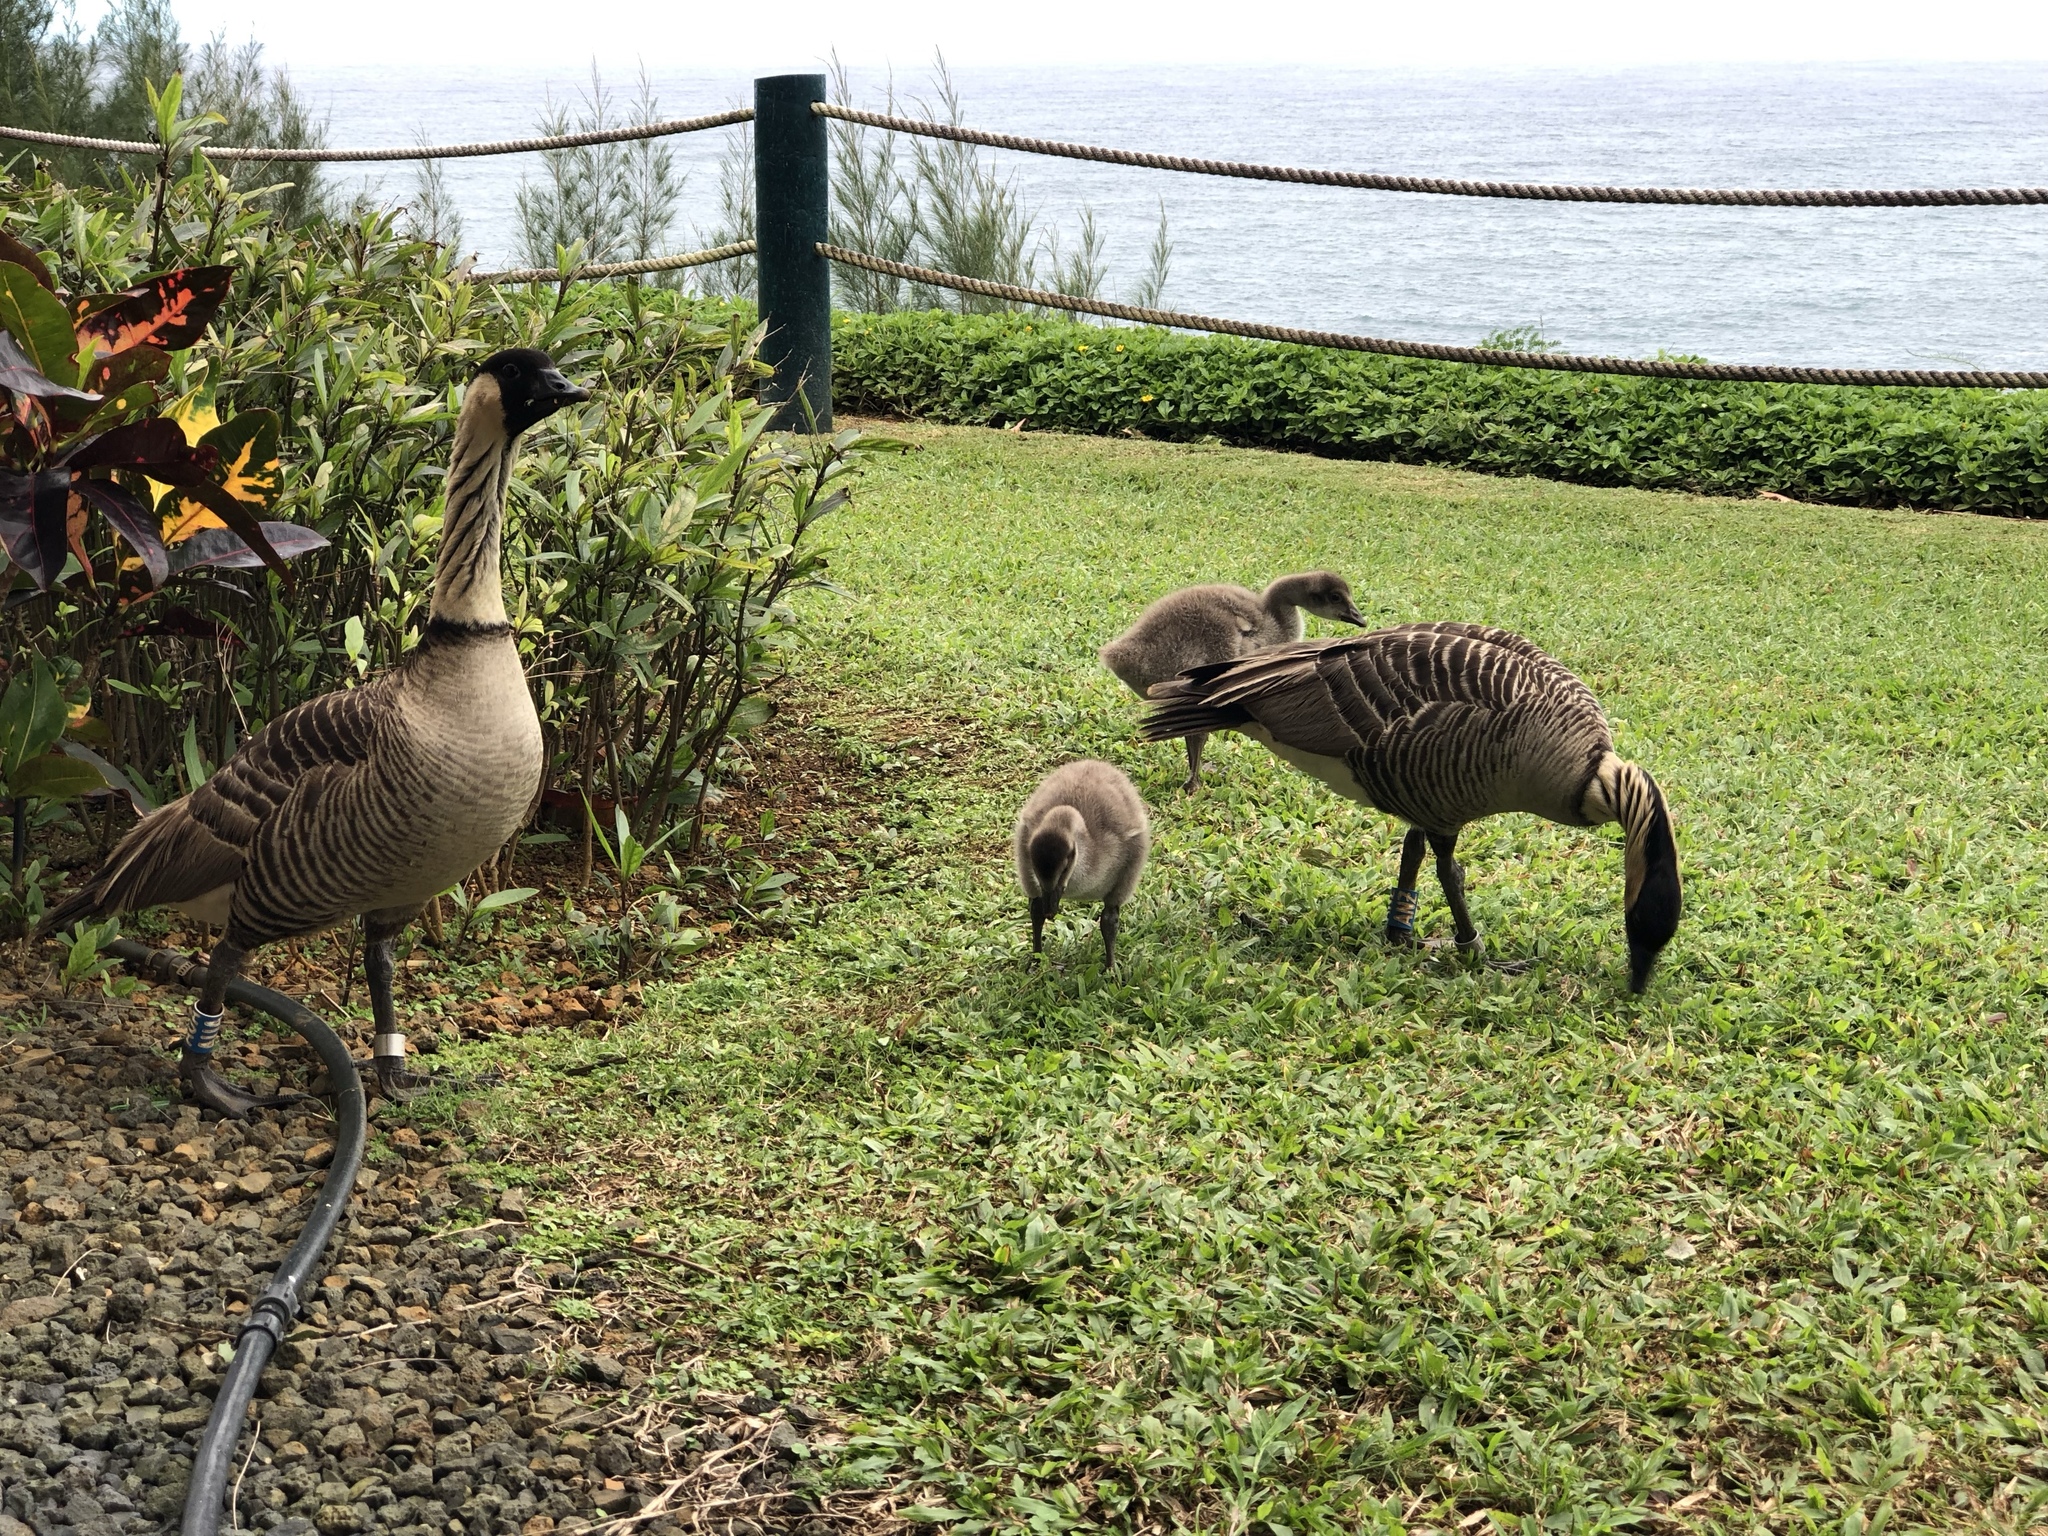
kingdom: Animalia
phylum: Chordata
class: Aves
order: Anseriformes
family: Anatidae
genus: Branta
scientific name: Branta sandvicensis
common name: Nene
